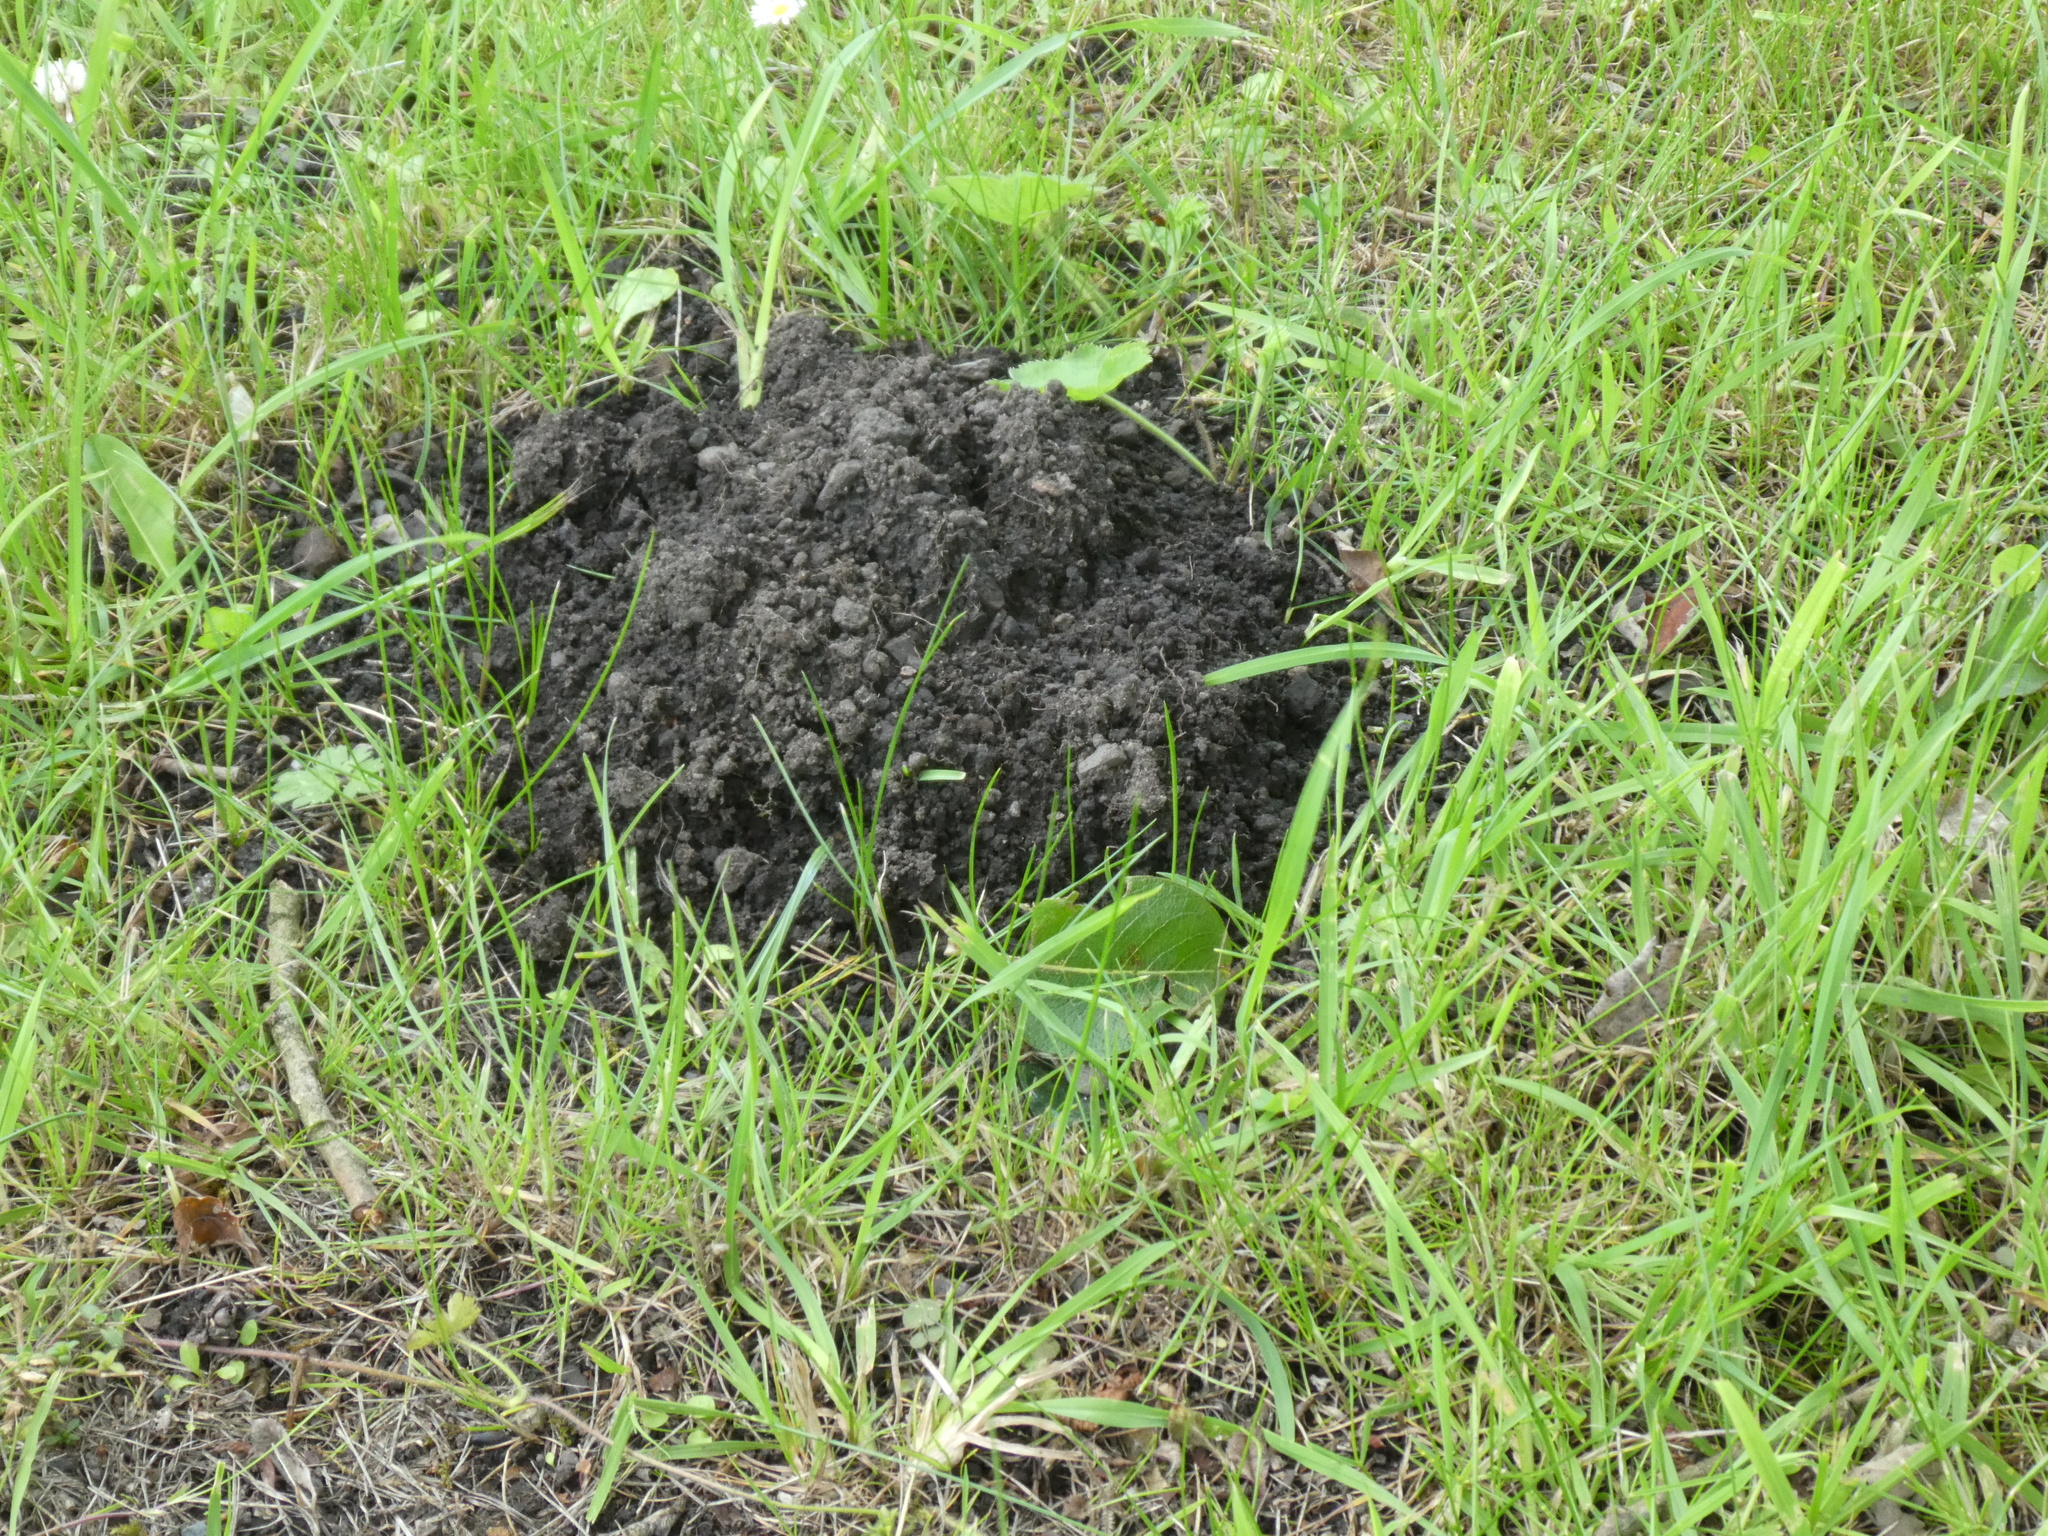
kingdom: Animalia
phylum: Chordata
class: Mammalia
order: Soricomorpha
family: Talpidae
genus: Talpa
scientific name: Talpa europaea
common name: European mole
